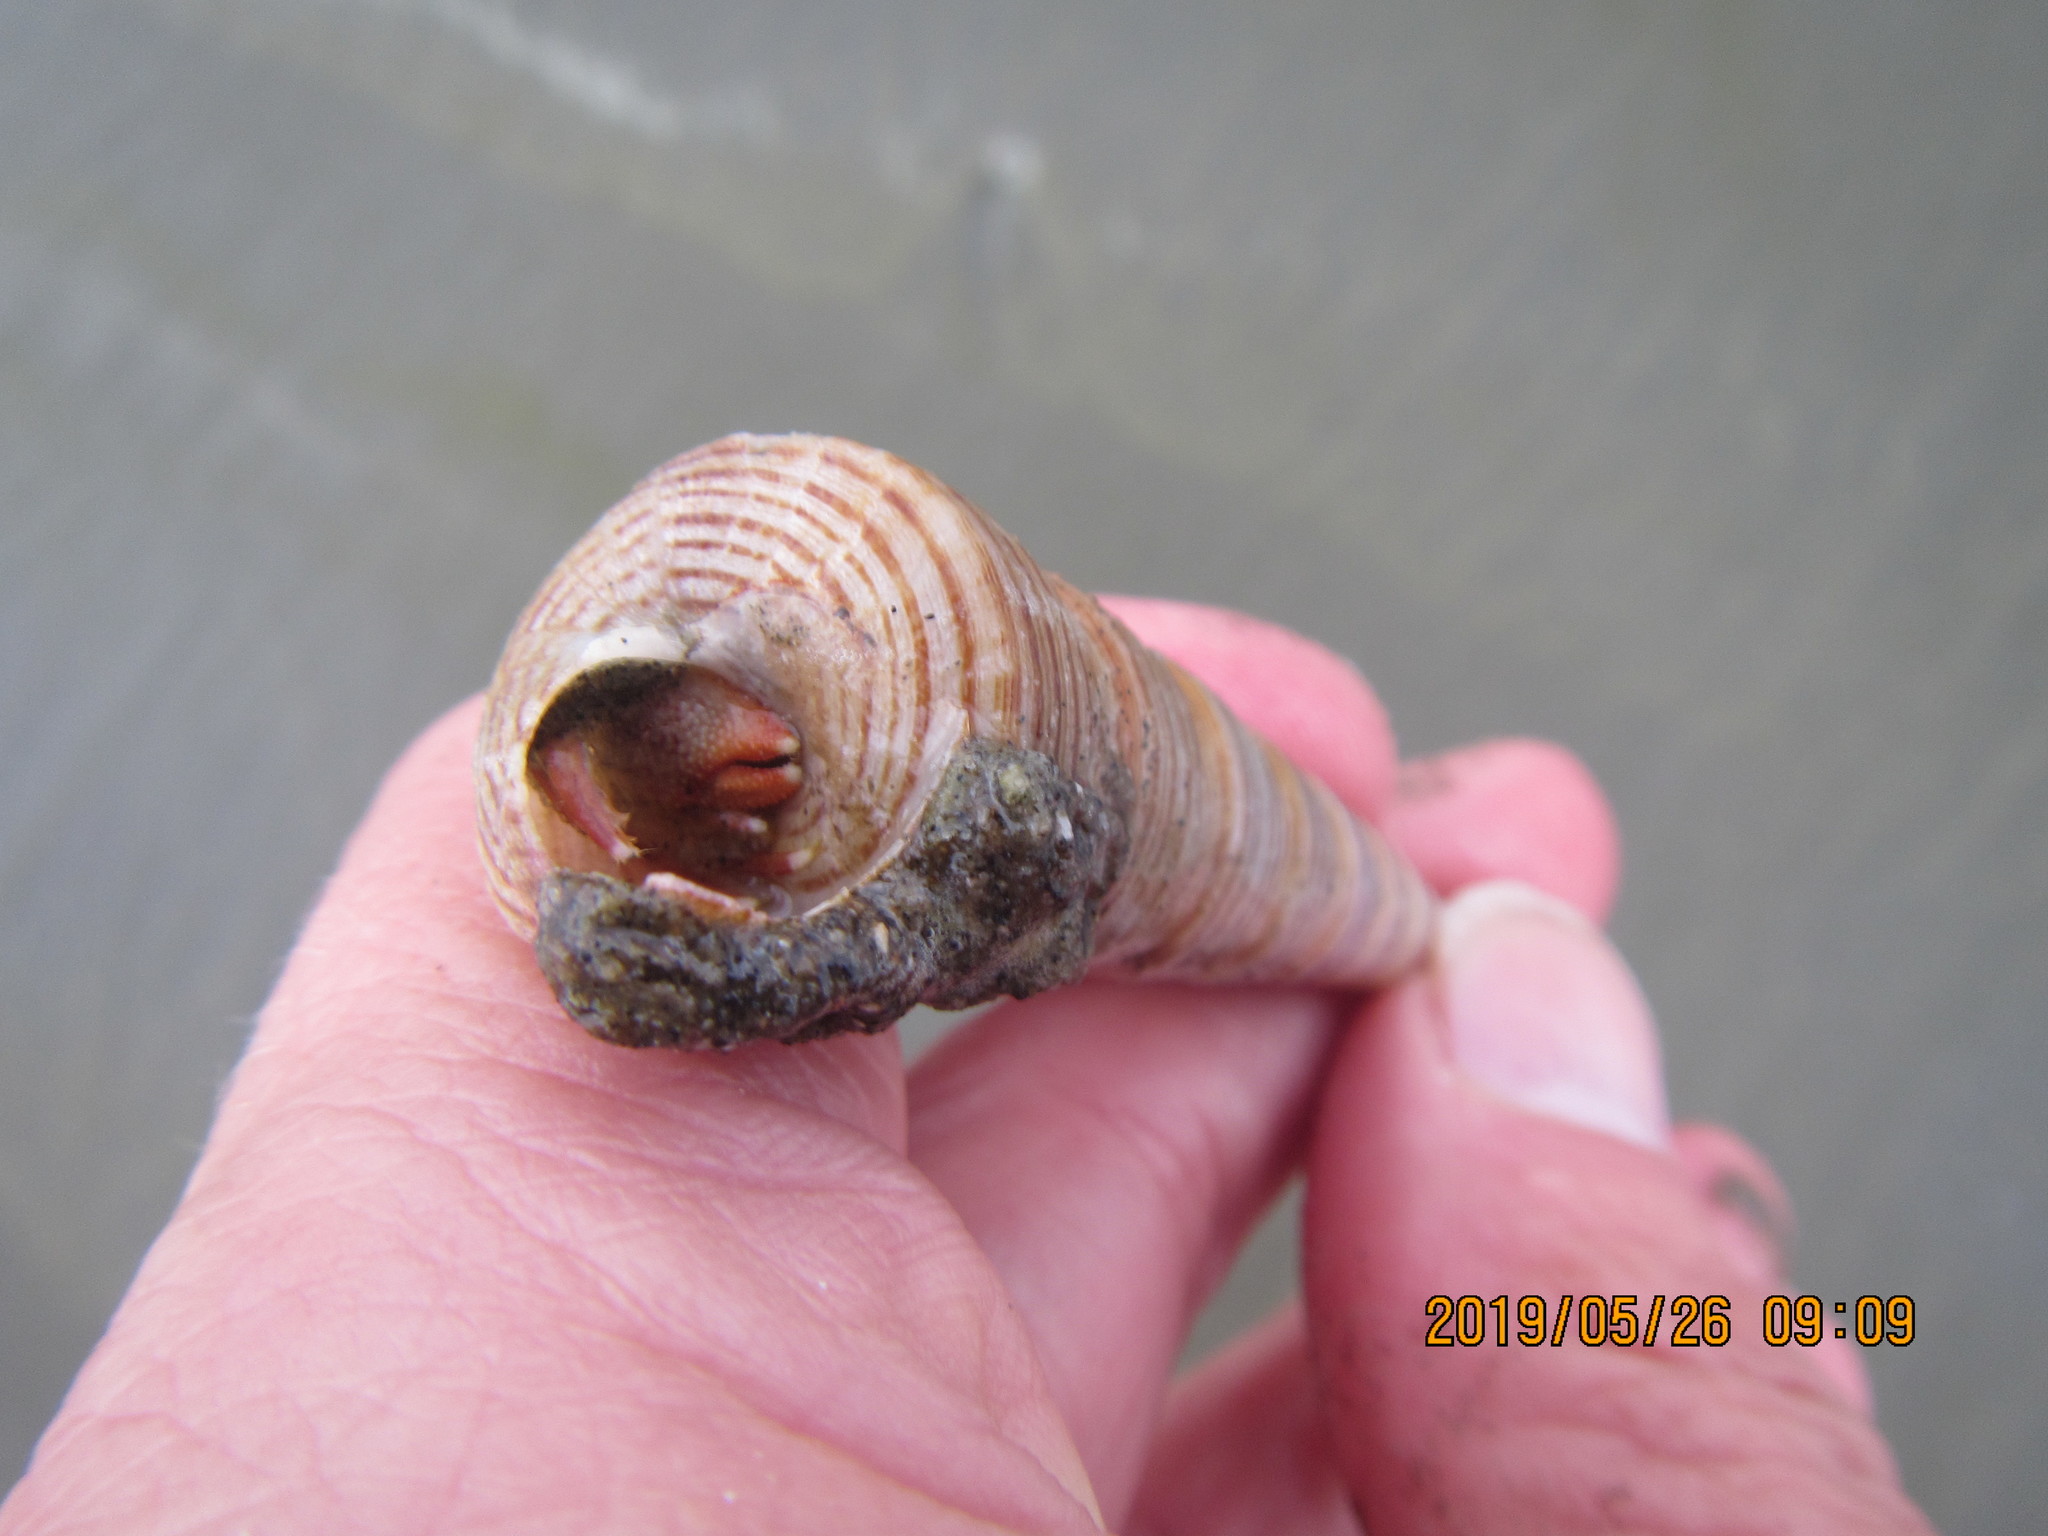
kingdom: Animalia
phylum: Mollusca
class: Gastropoda
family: Turritellidae
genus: Zeacolpus
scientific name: Zeacolpus vittatus
